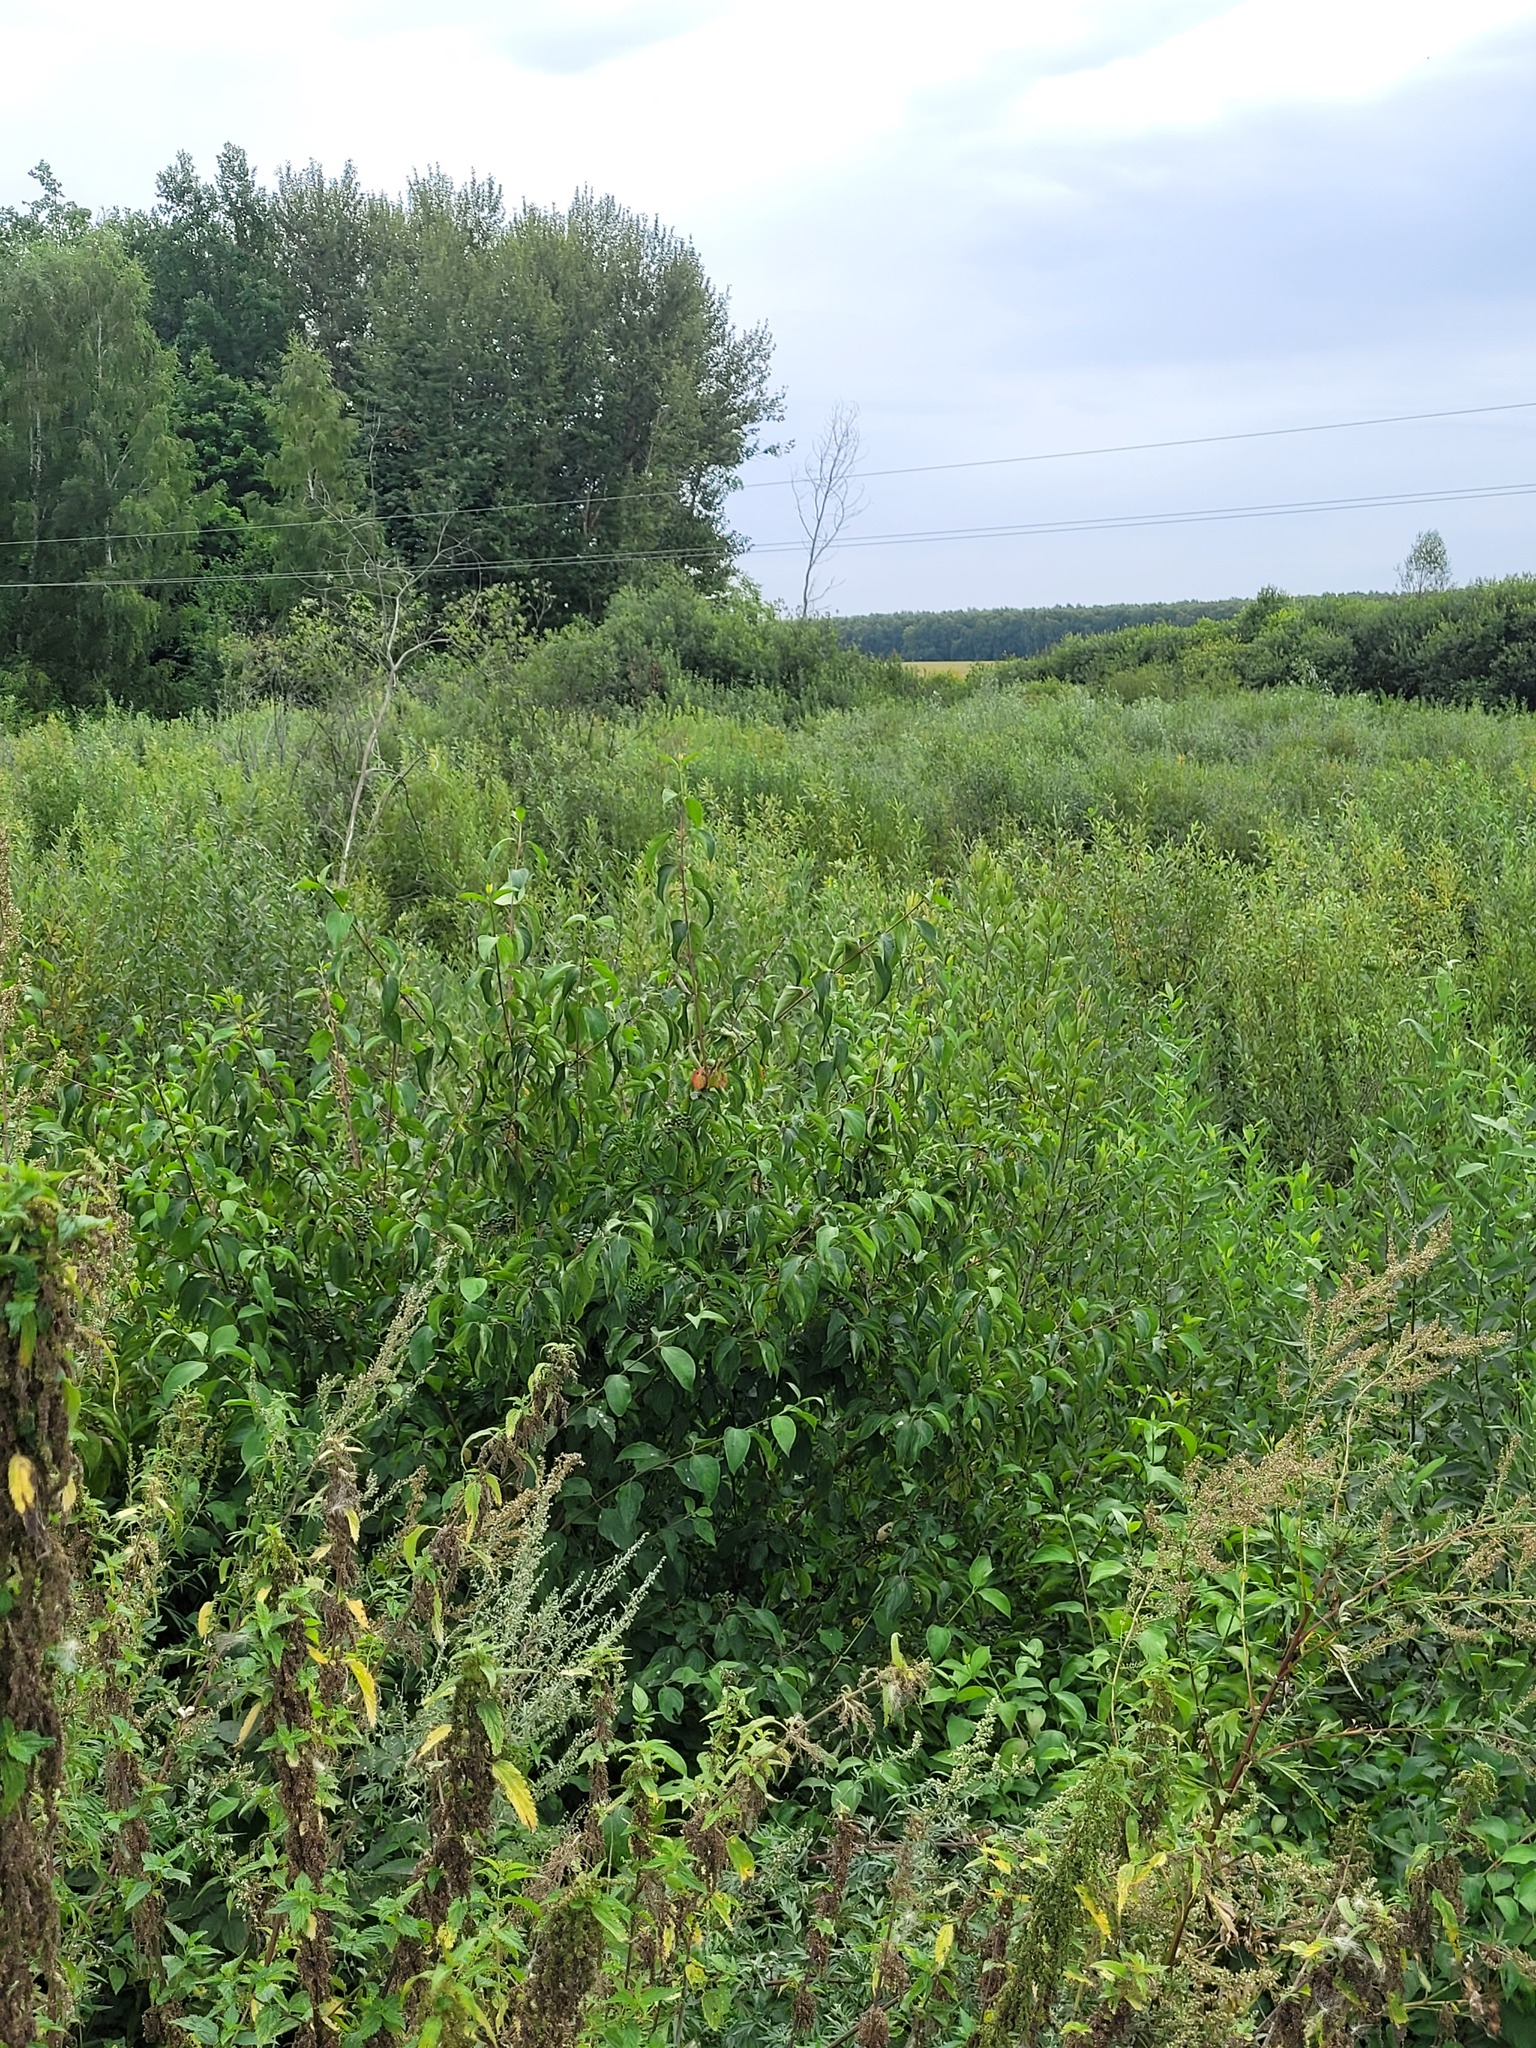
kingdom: Plantae
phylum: Tracheophyta
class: Magnoliopsida
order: Cornales
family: Cornaceae
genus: Cornus
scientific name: Cornus sanguinea
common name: Dogwood
